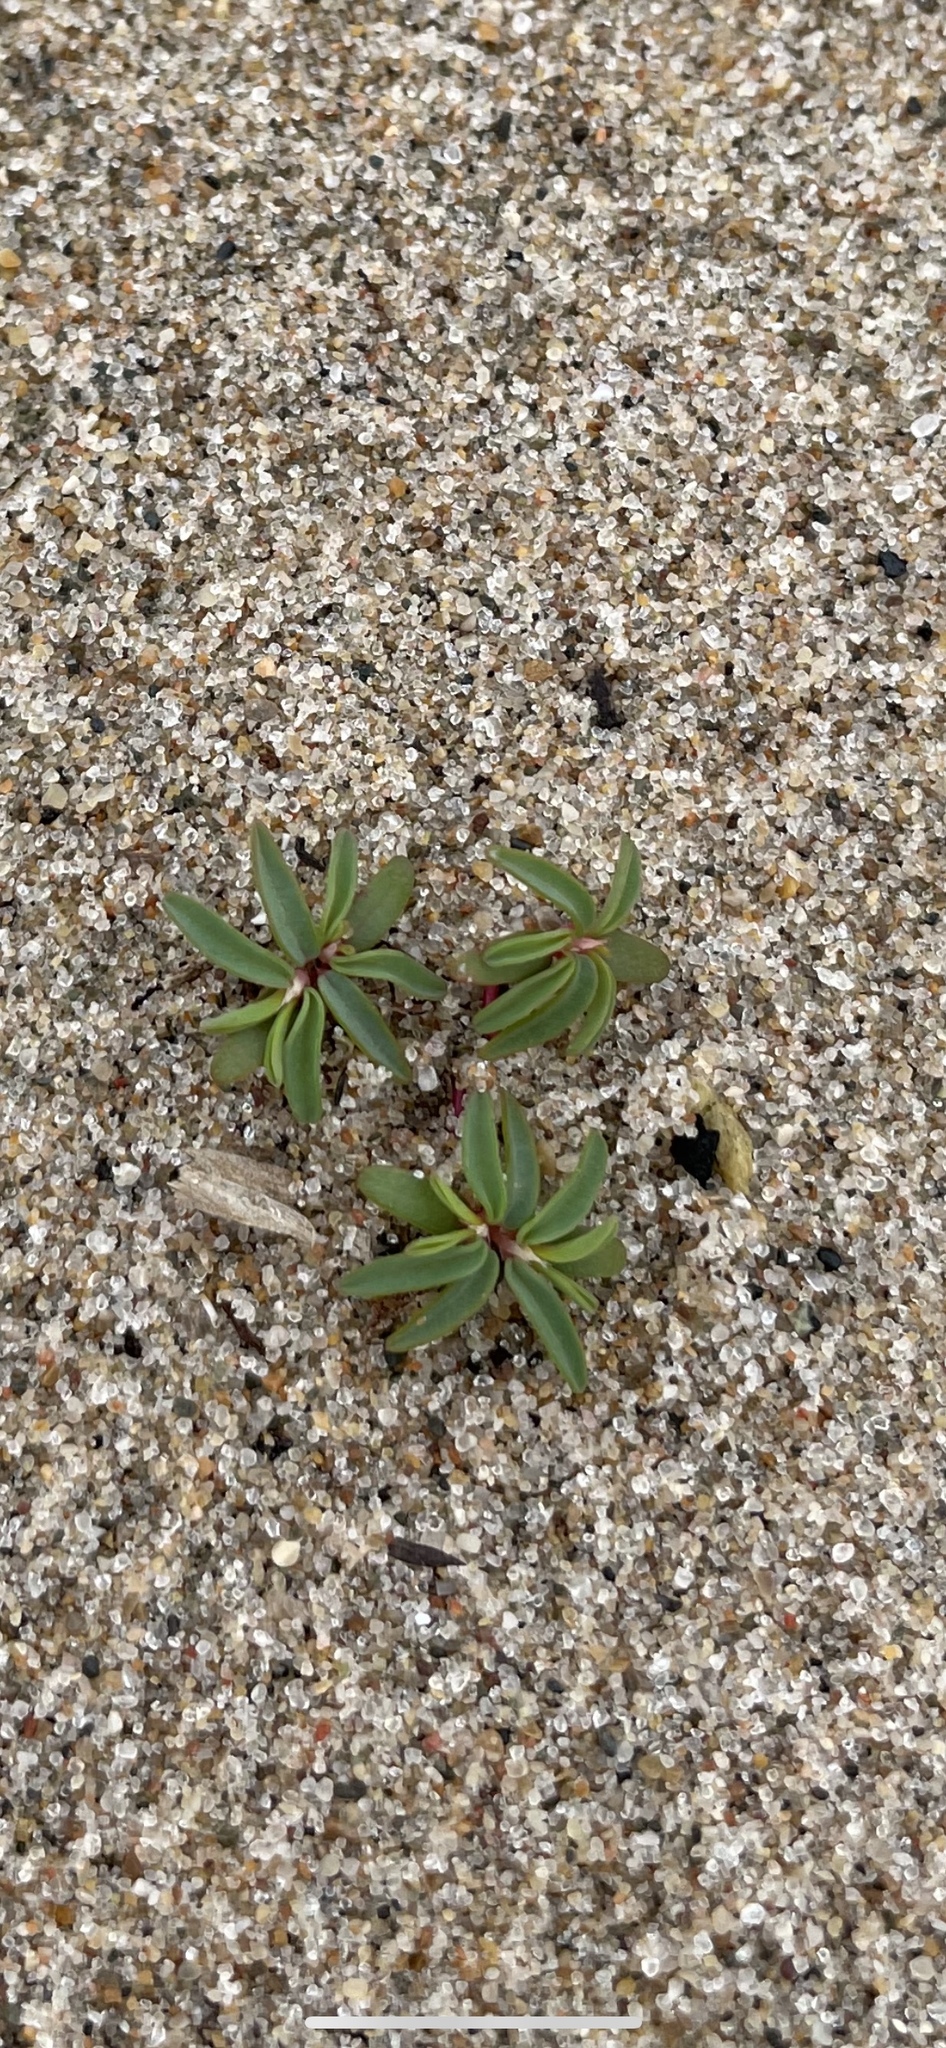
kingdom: Plantae
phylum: Tracheophyta
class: Magnoliopsida
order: Malpighiales
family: Euphorbiaceae
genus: Euphorbia
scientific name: Euphorbia polygonifolia
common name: Knotweed spurge
